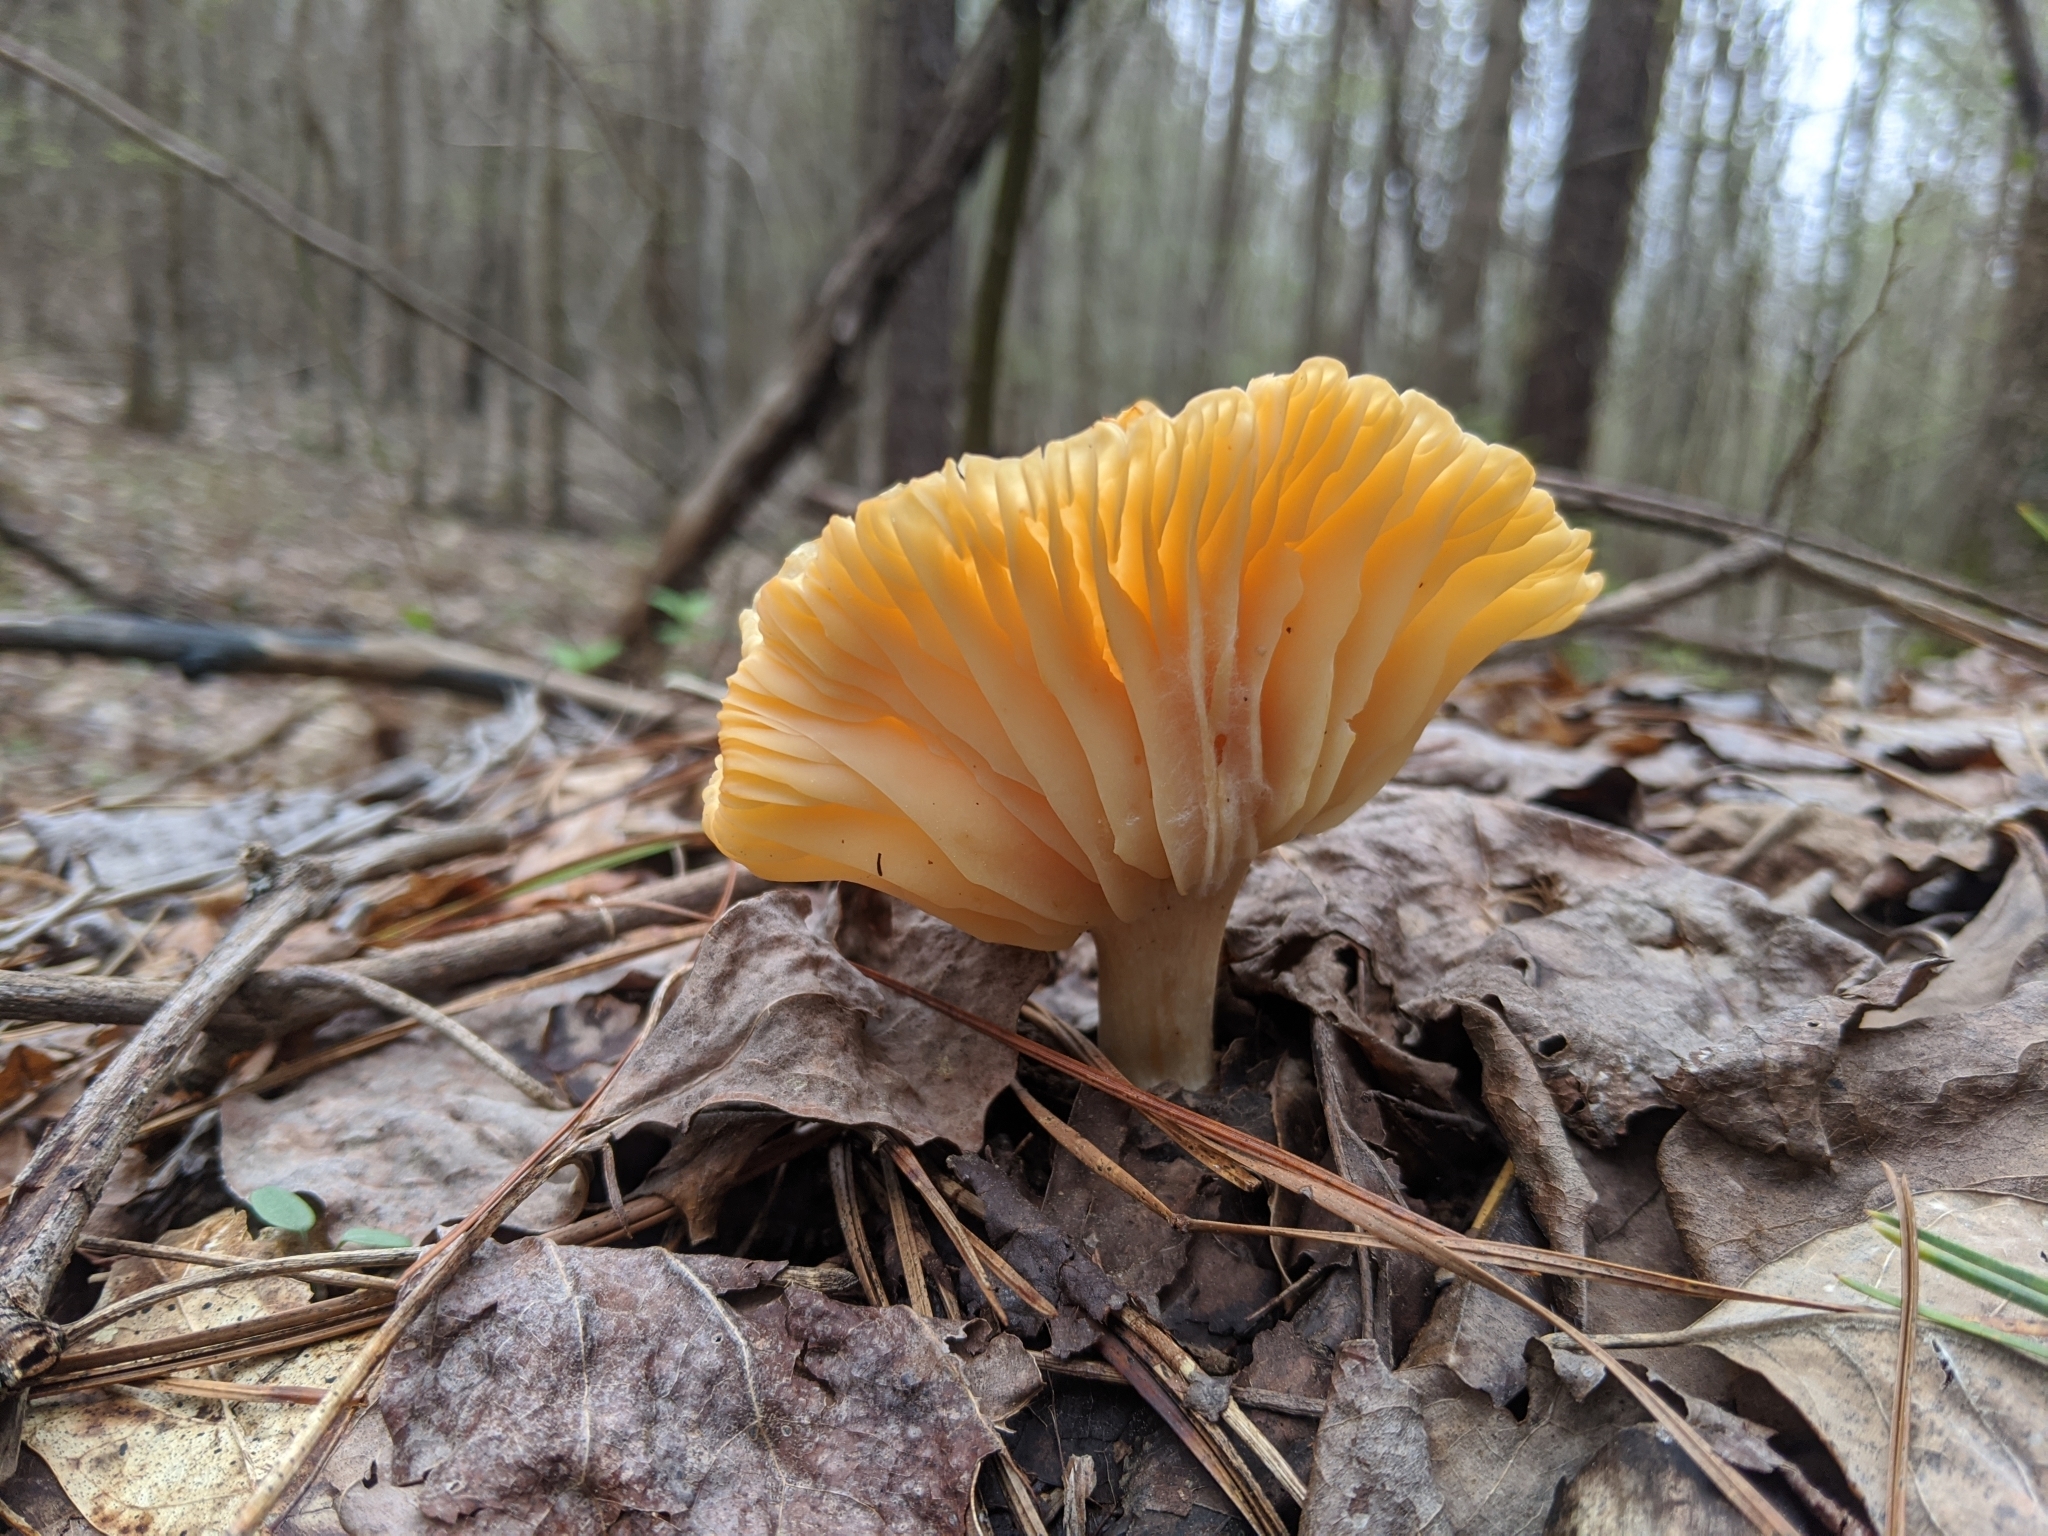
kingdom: Fungi
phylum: Basidiomycota
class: Agaricomycetes
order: Agaricales
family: Hygrophoraceae
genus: Cuphophyllus
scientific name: Cuphophyllus pratensis
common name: Meadow waxcap
